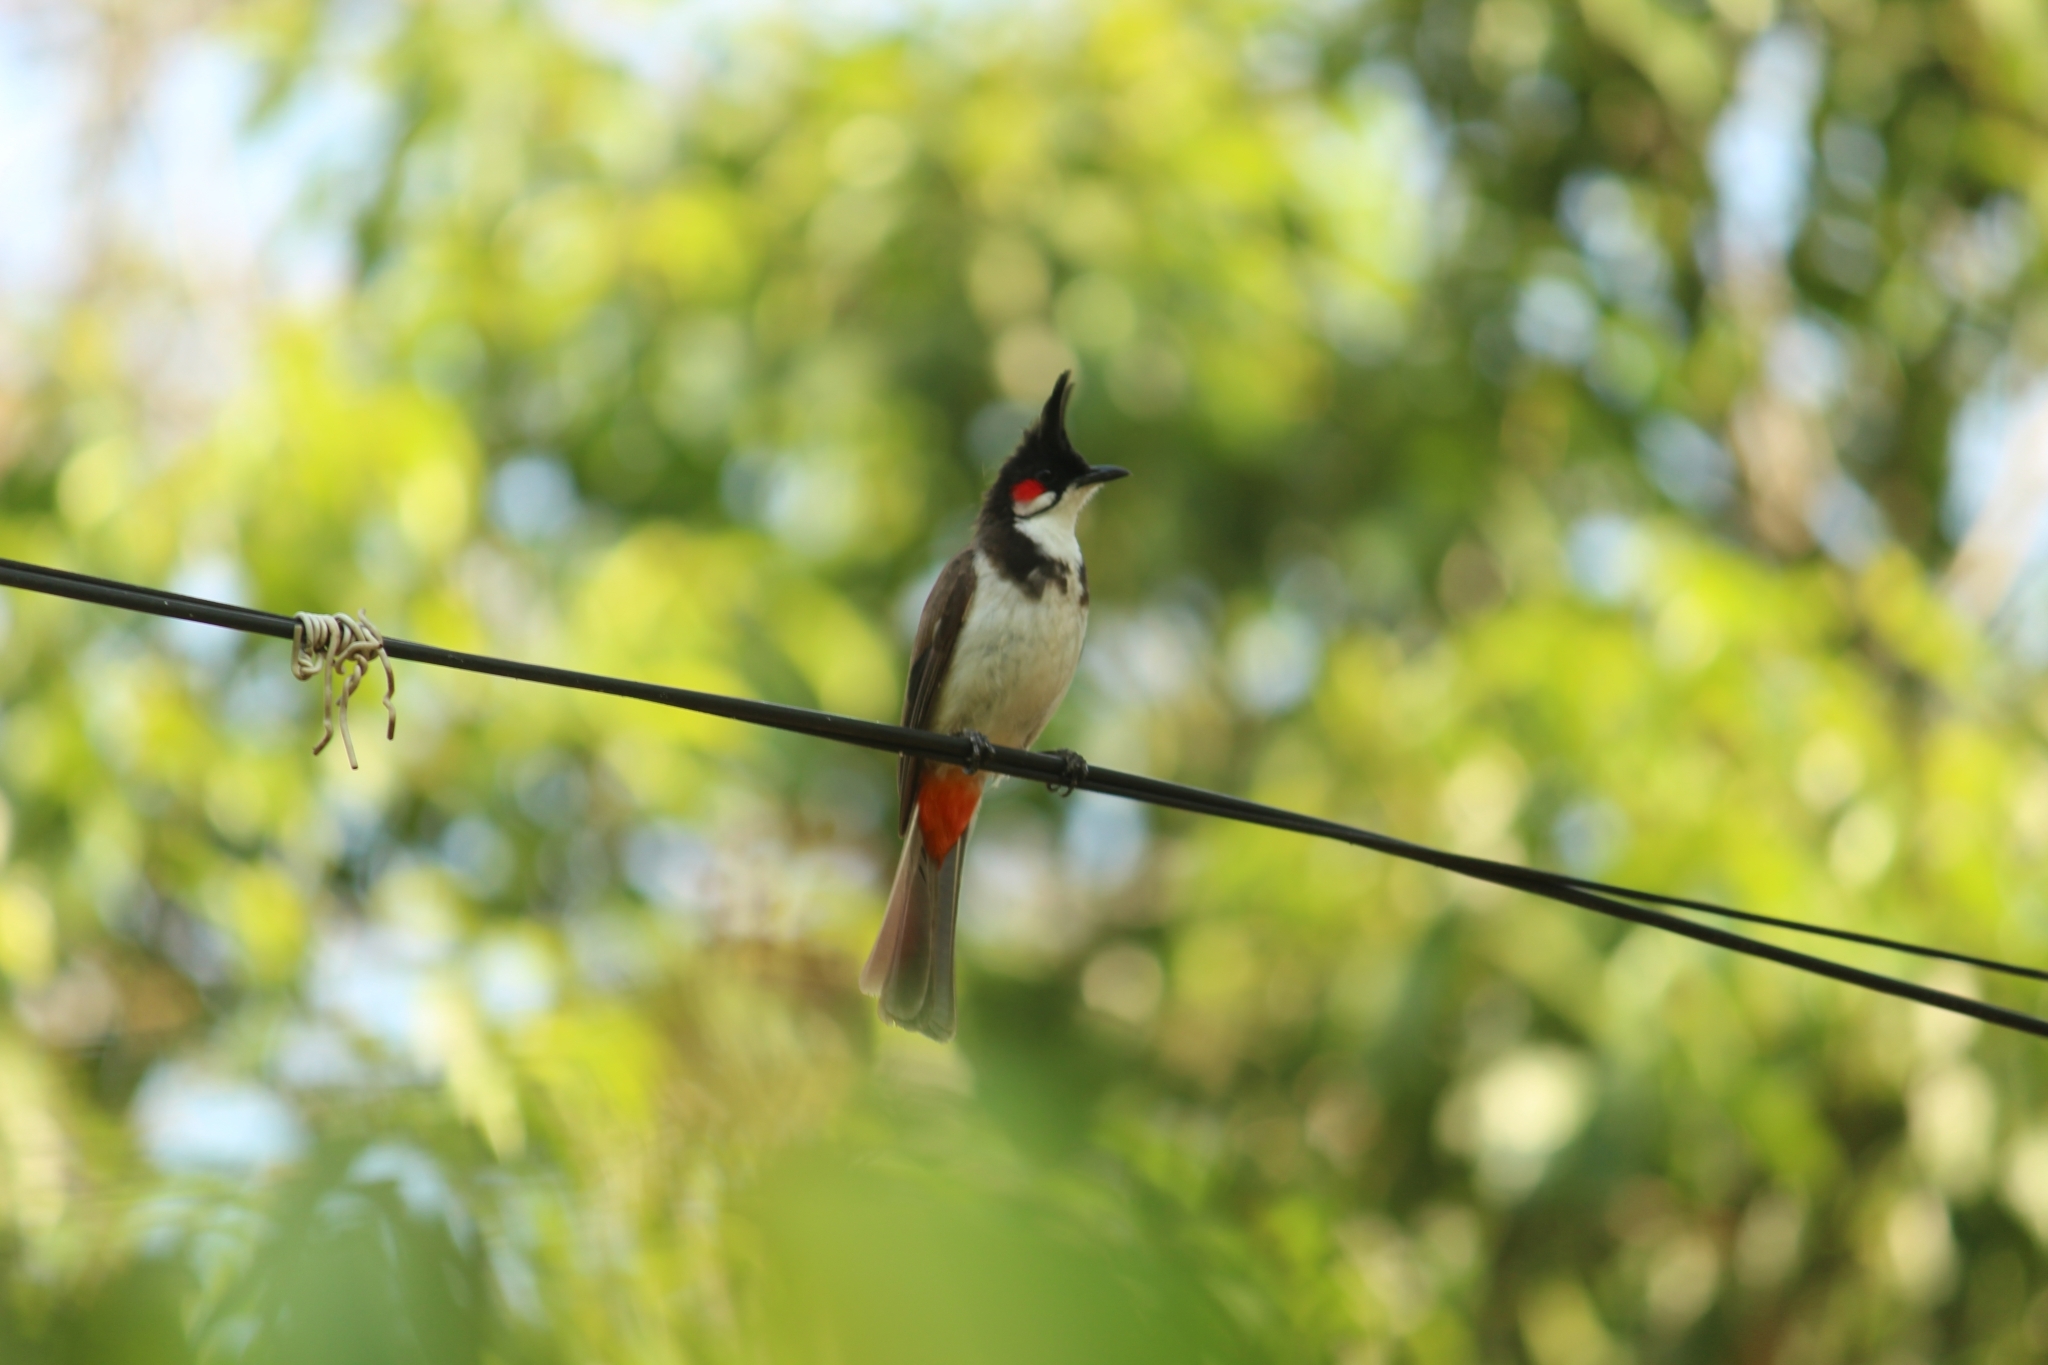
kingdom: Animalia
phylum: Chordata
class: Aves
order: Passeriformes
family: Pycnonotidae
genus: Pycnonotus
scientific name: Pycnonotus jocosus
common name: Red-whiskered bulbul
